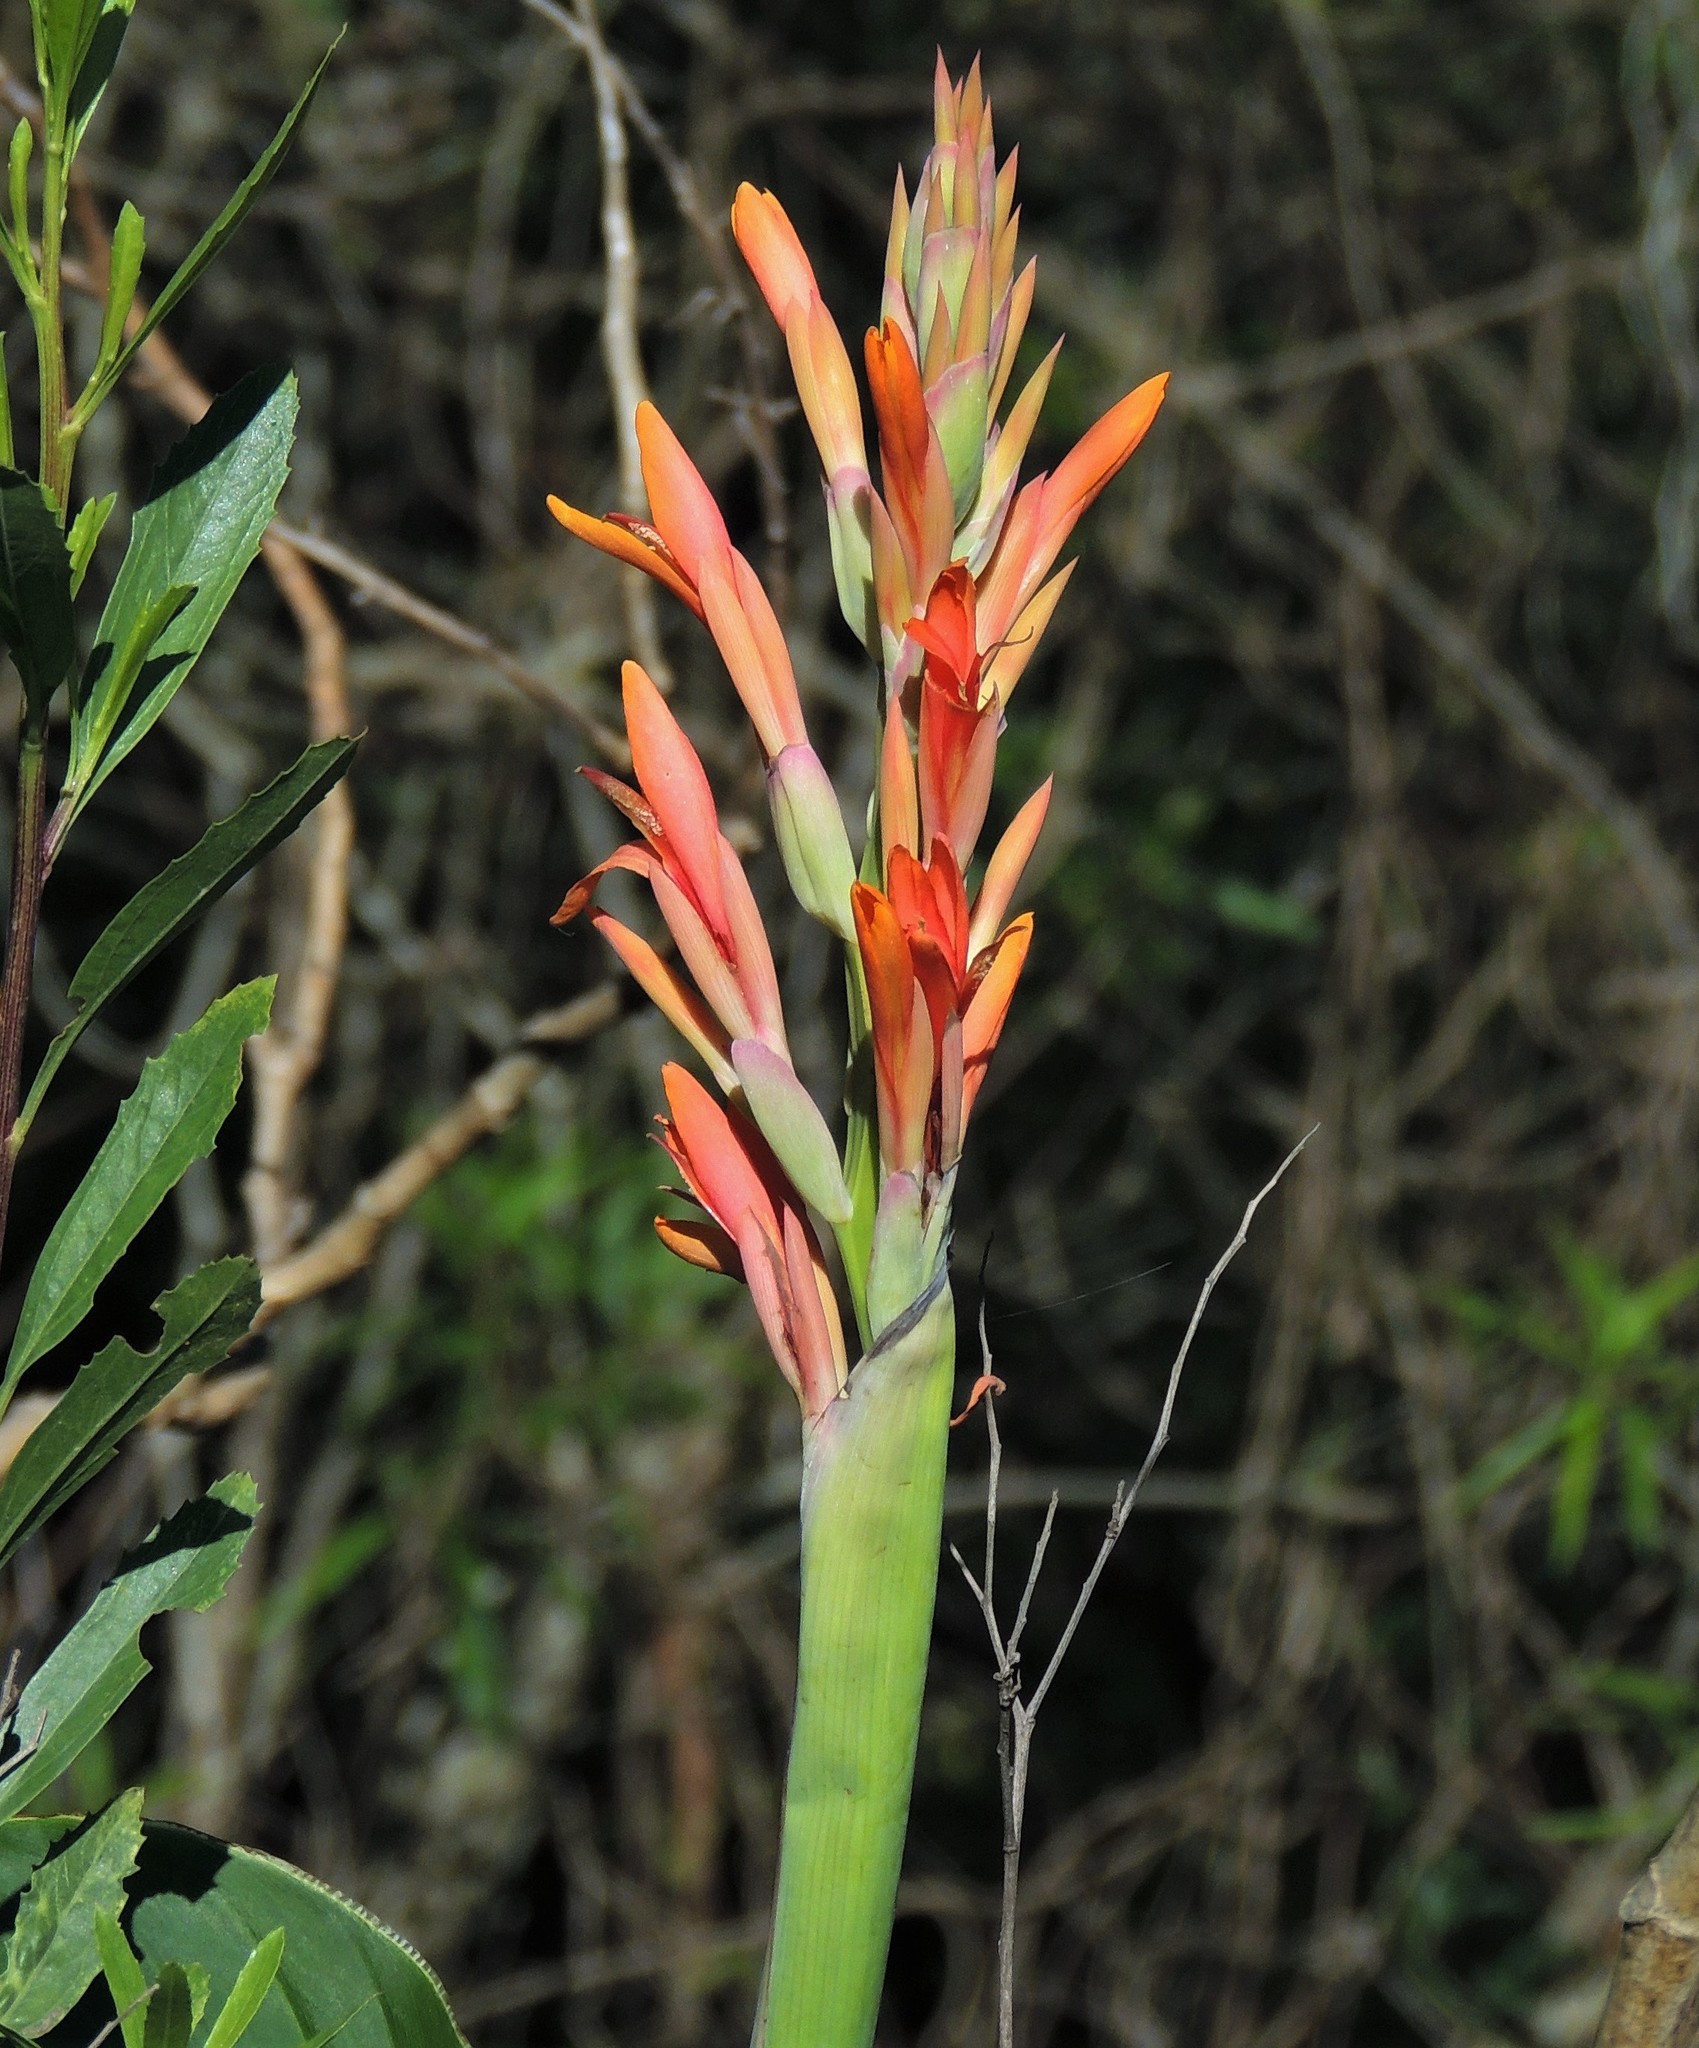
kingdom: Plantae
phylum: Tracheophyta
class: Liliopsida
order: Zingiberales
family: Cannaceae
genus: Canna
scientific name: Canna indica
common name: Indian shot
